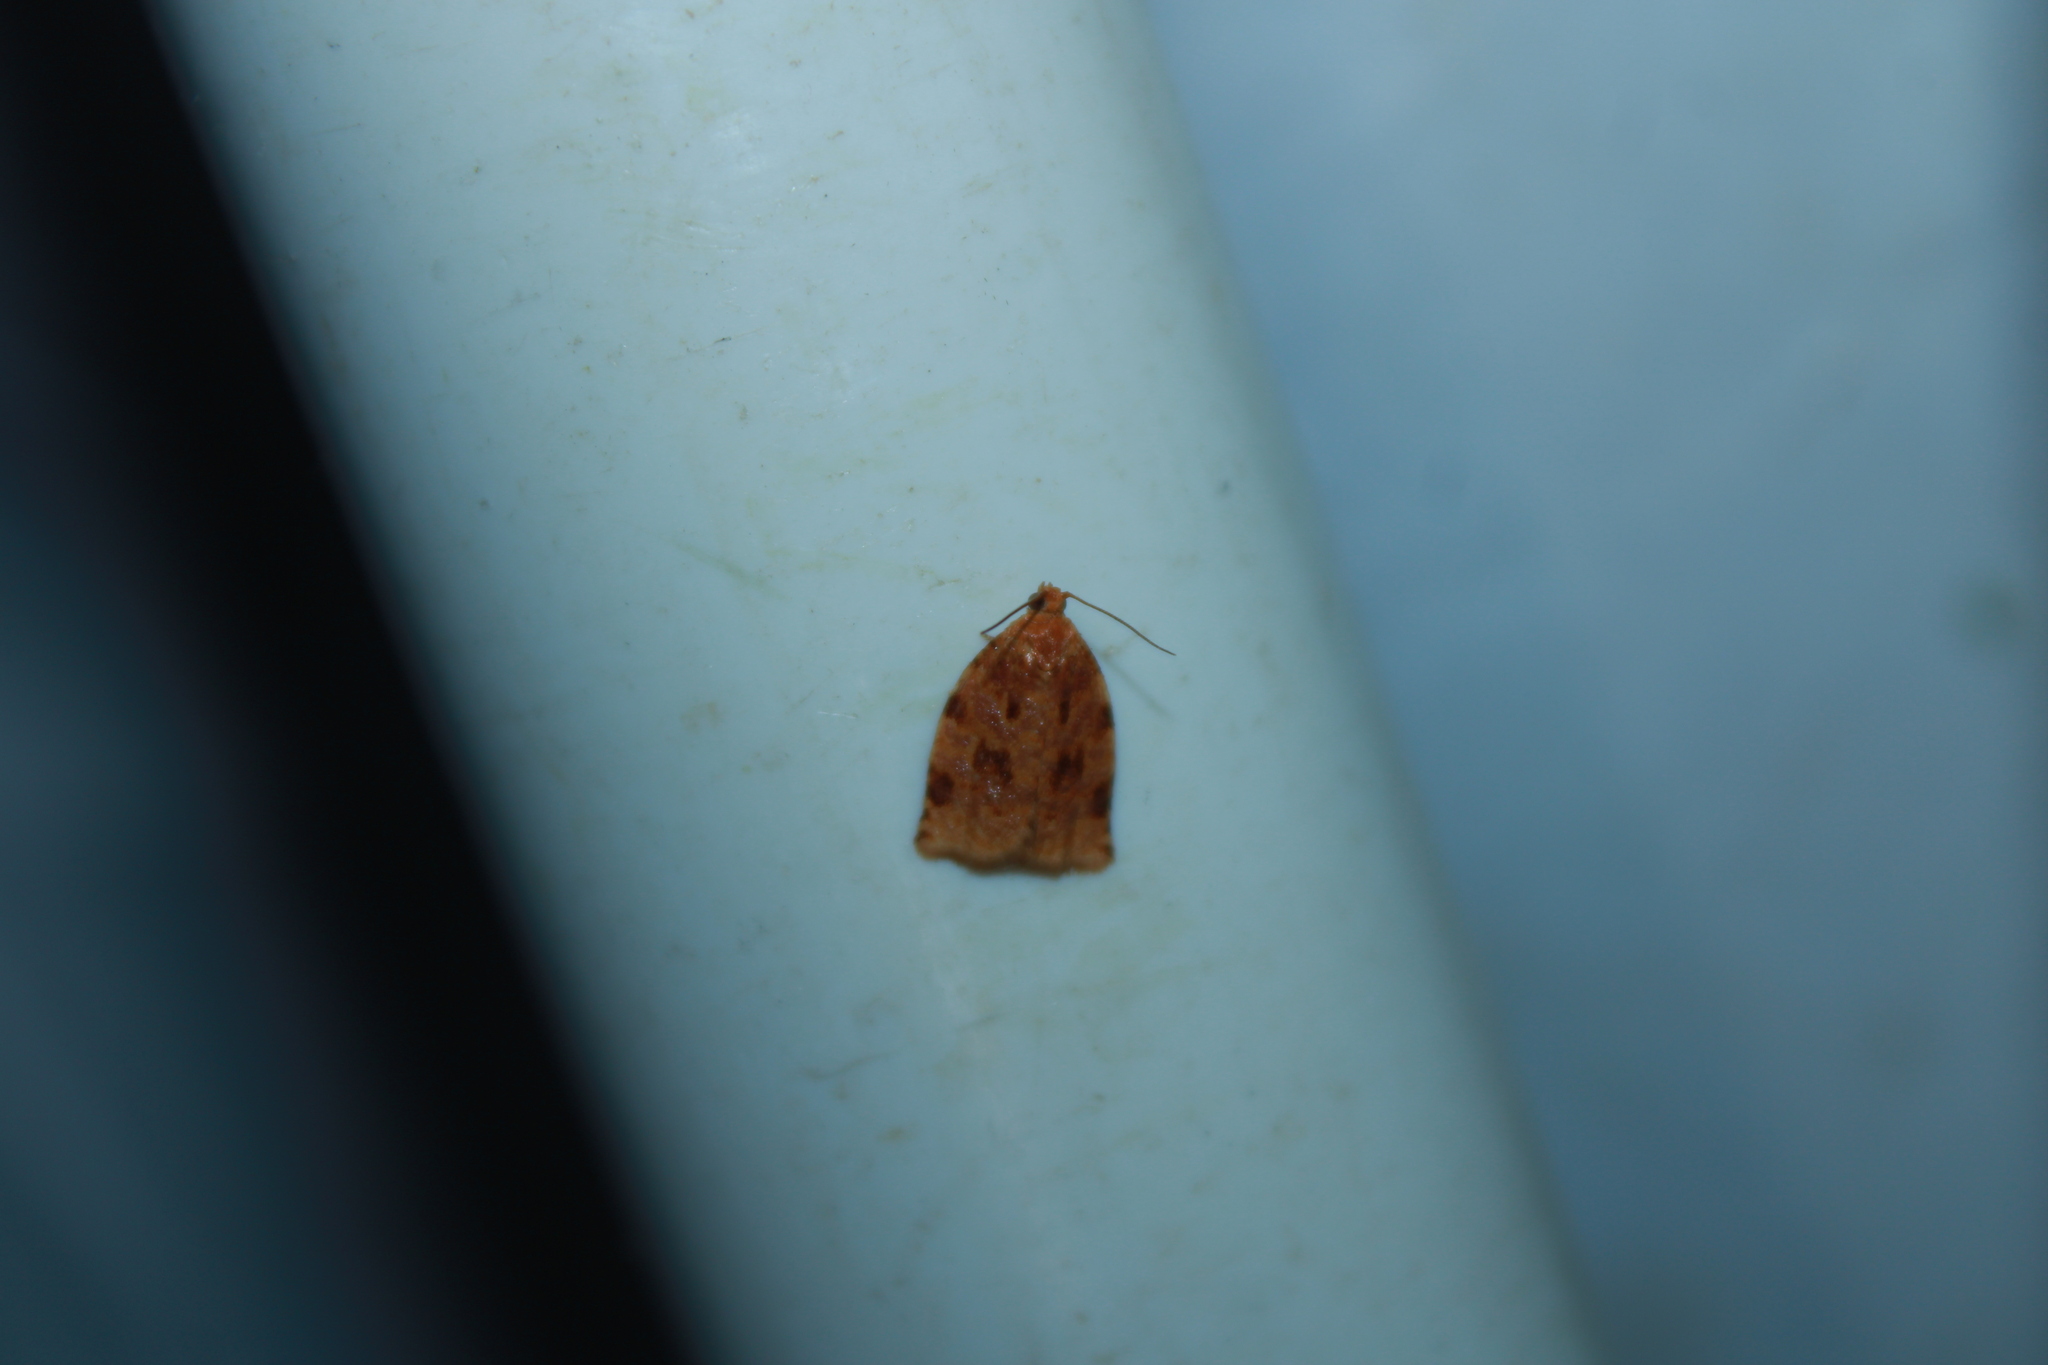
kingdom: Animalia
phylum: Arthropoda
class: Insecta
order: Lepidoptera
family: Tortricidae
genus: Archips
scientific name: Archips cerasivorana
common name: Uglynest caterpillar
